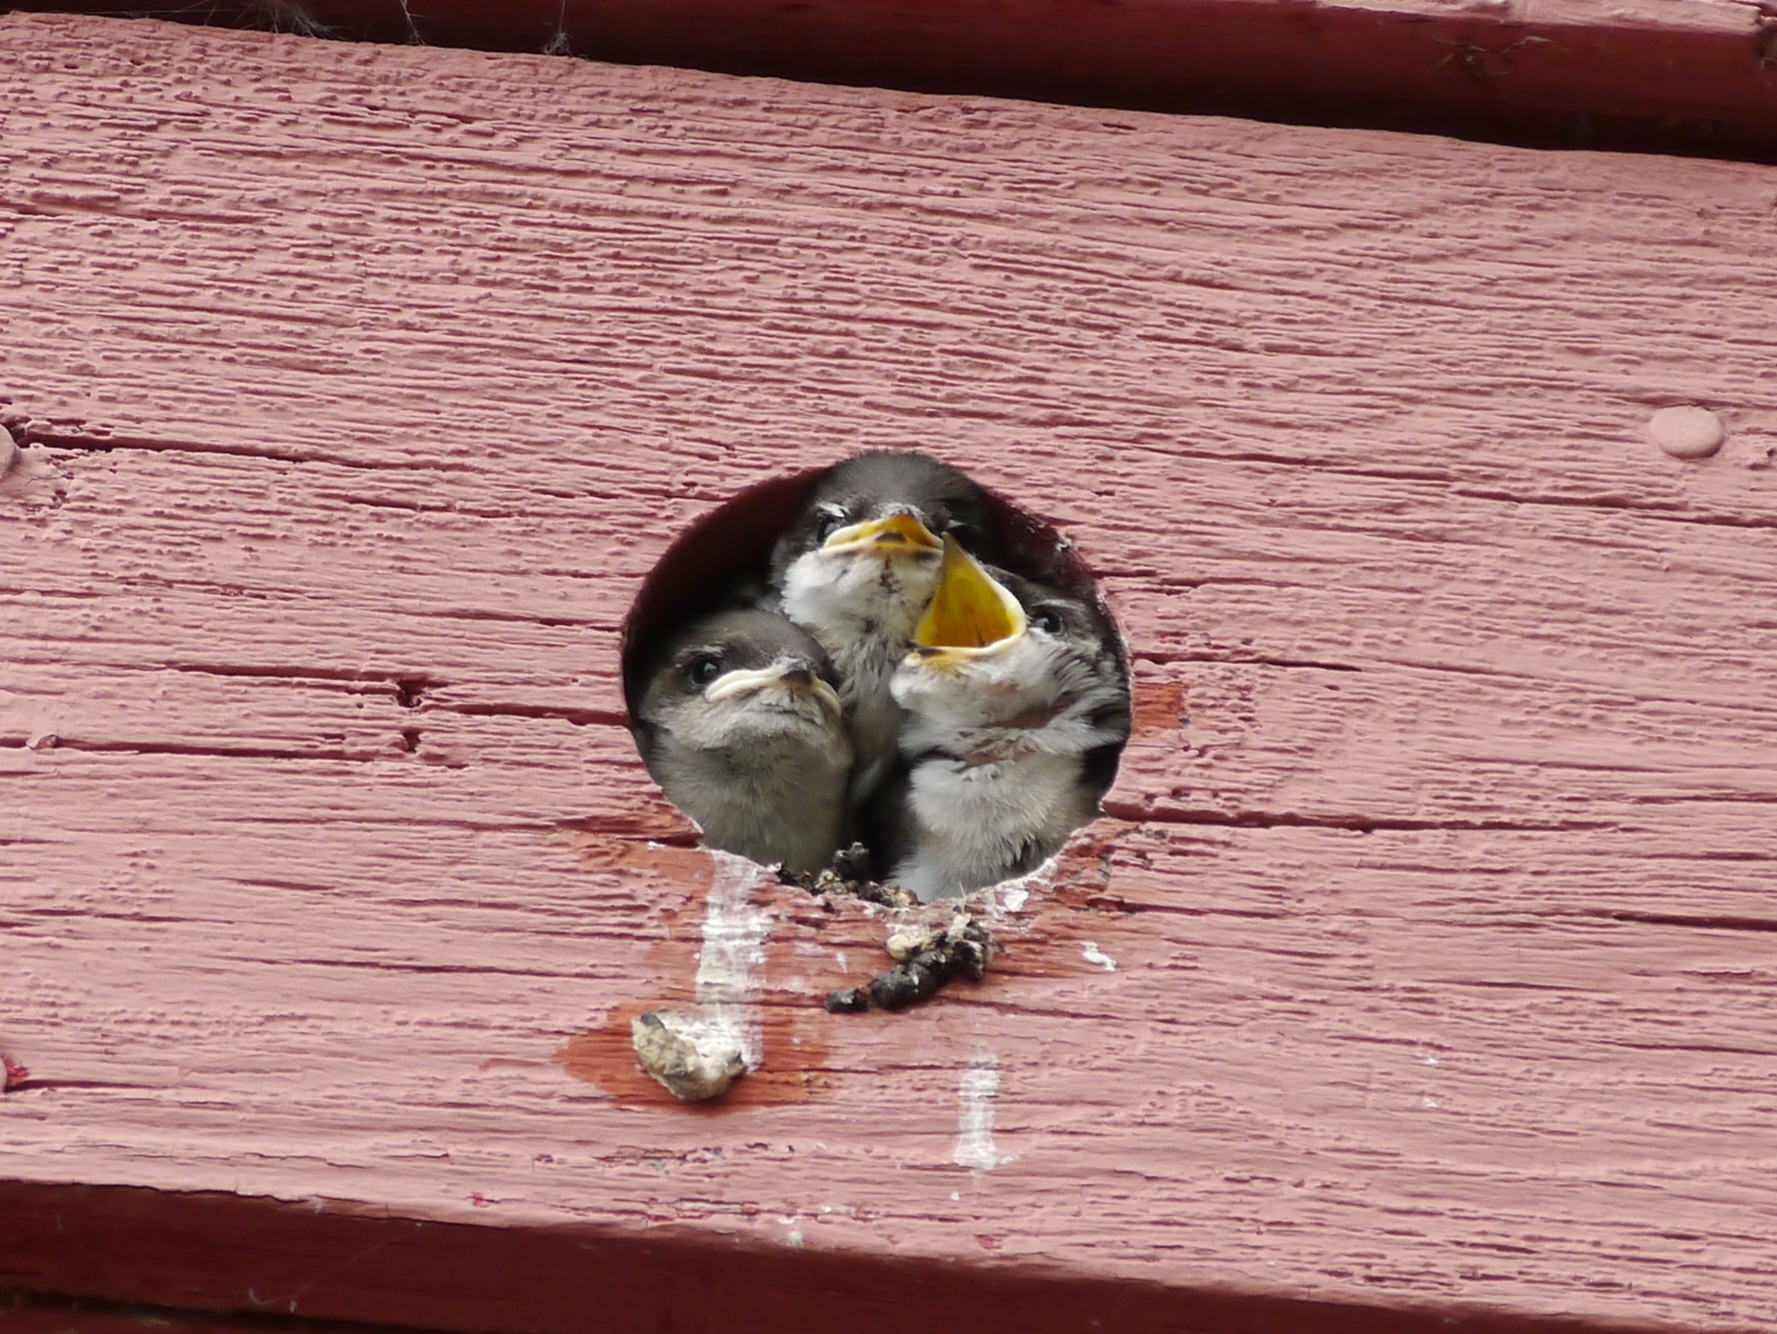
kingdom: Animalia
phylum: Chordata
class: Aves
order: Passeriformes
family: Hirundinidae
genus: Tachycineta
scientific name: Tachycineta thalassina
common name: Violet-green swallow
